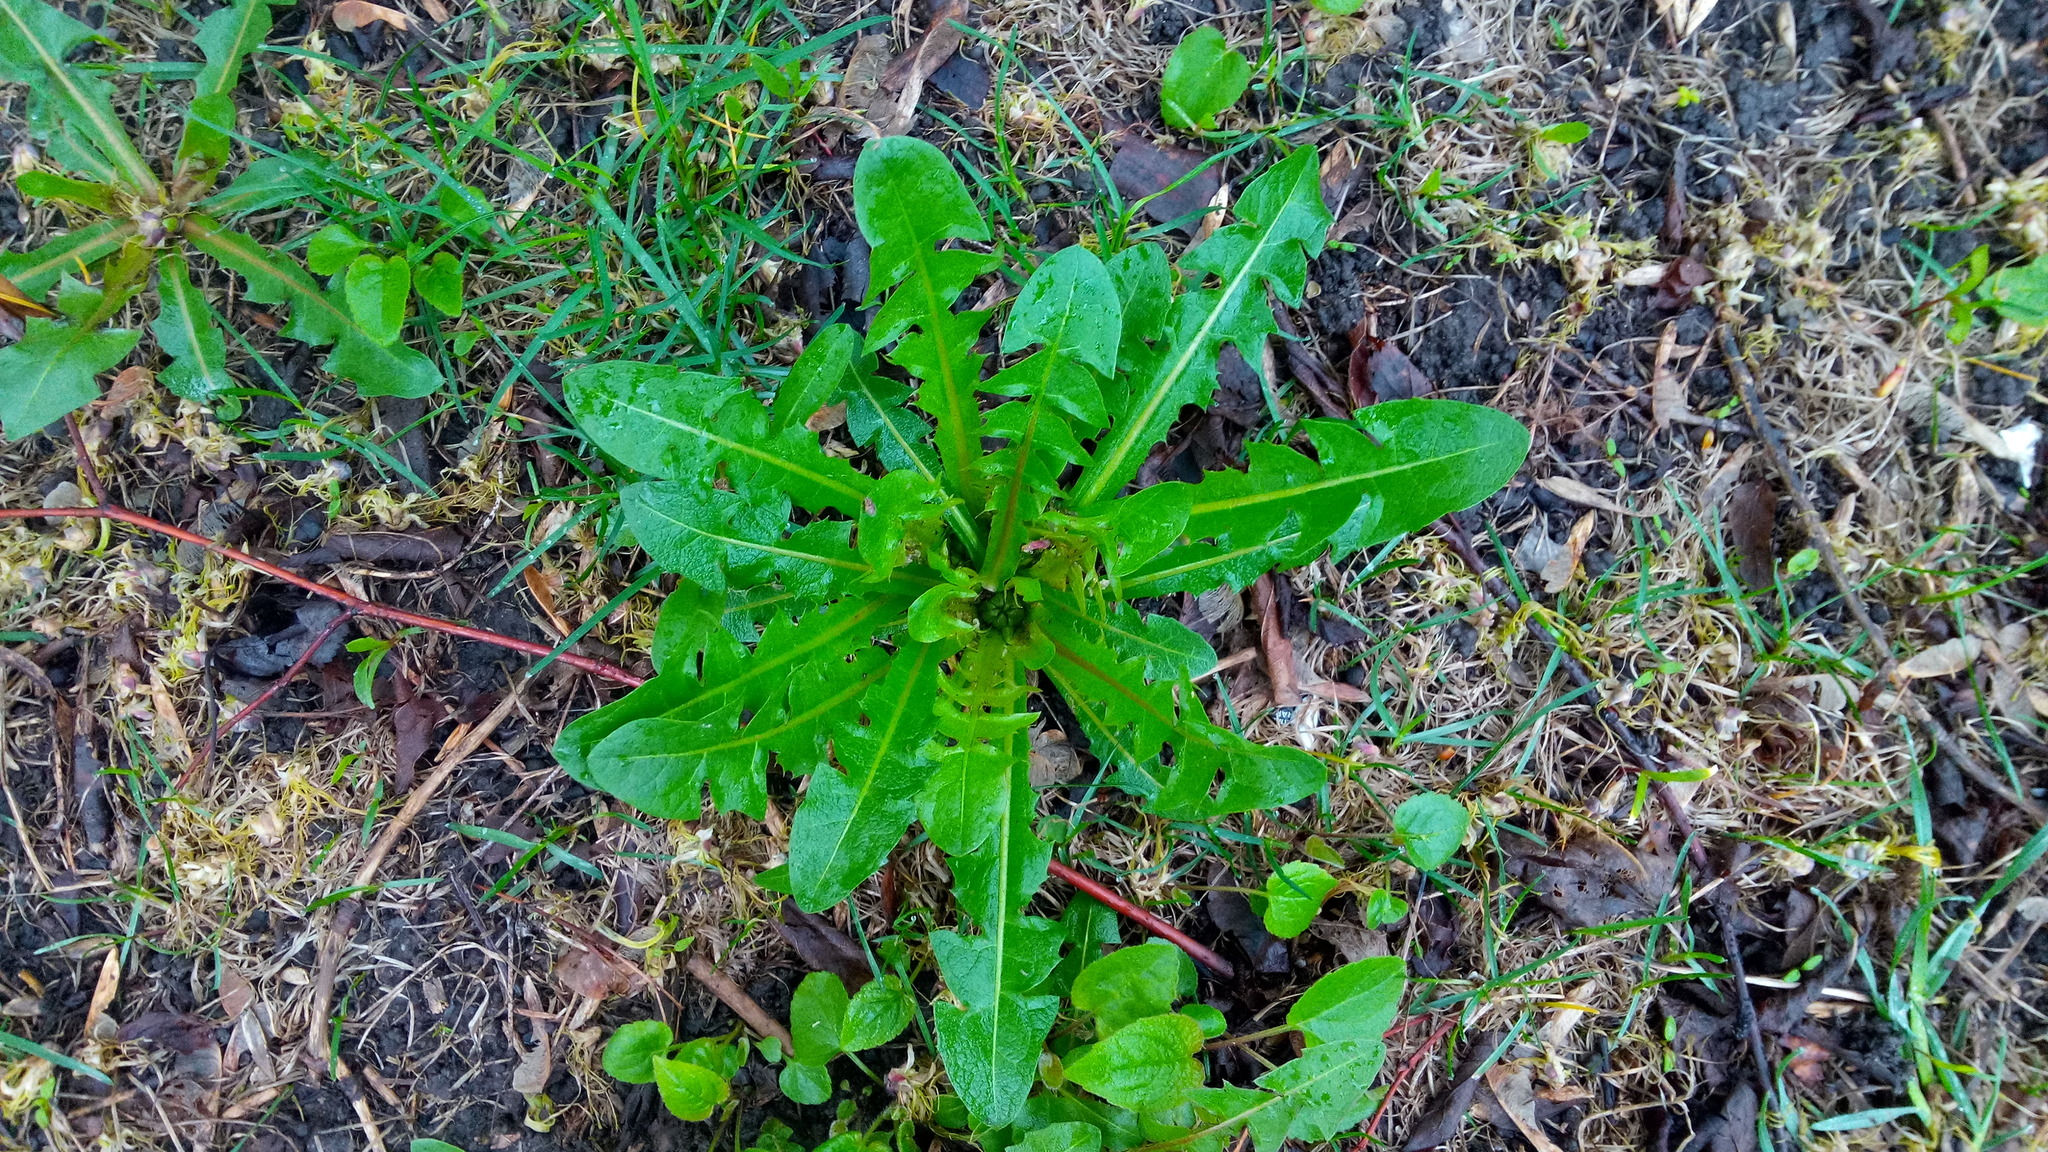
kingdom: Plantae
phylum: Tracheophyta
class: Magnoliopsida
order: Asterales
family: Asteraceae
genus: Taraxacum
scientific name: Taraxacum officinale
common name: Common dandelion
